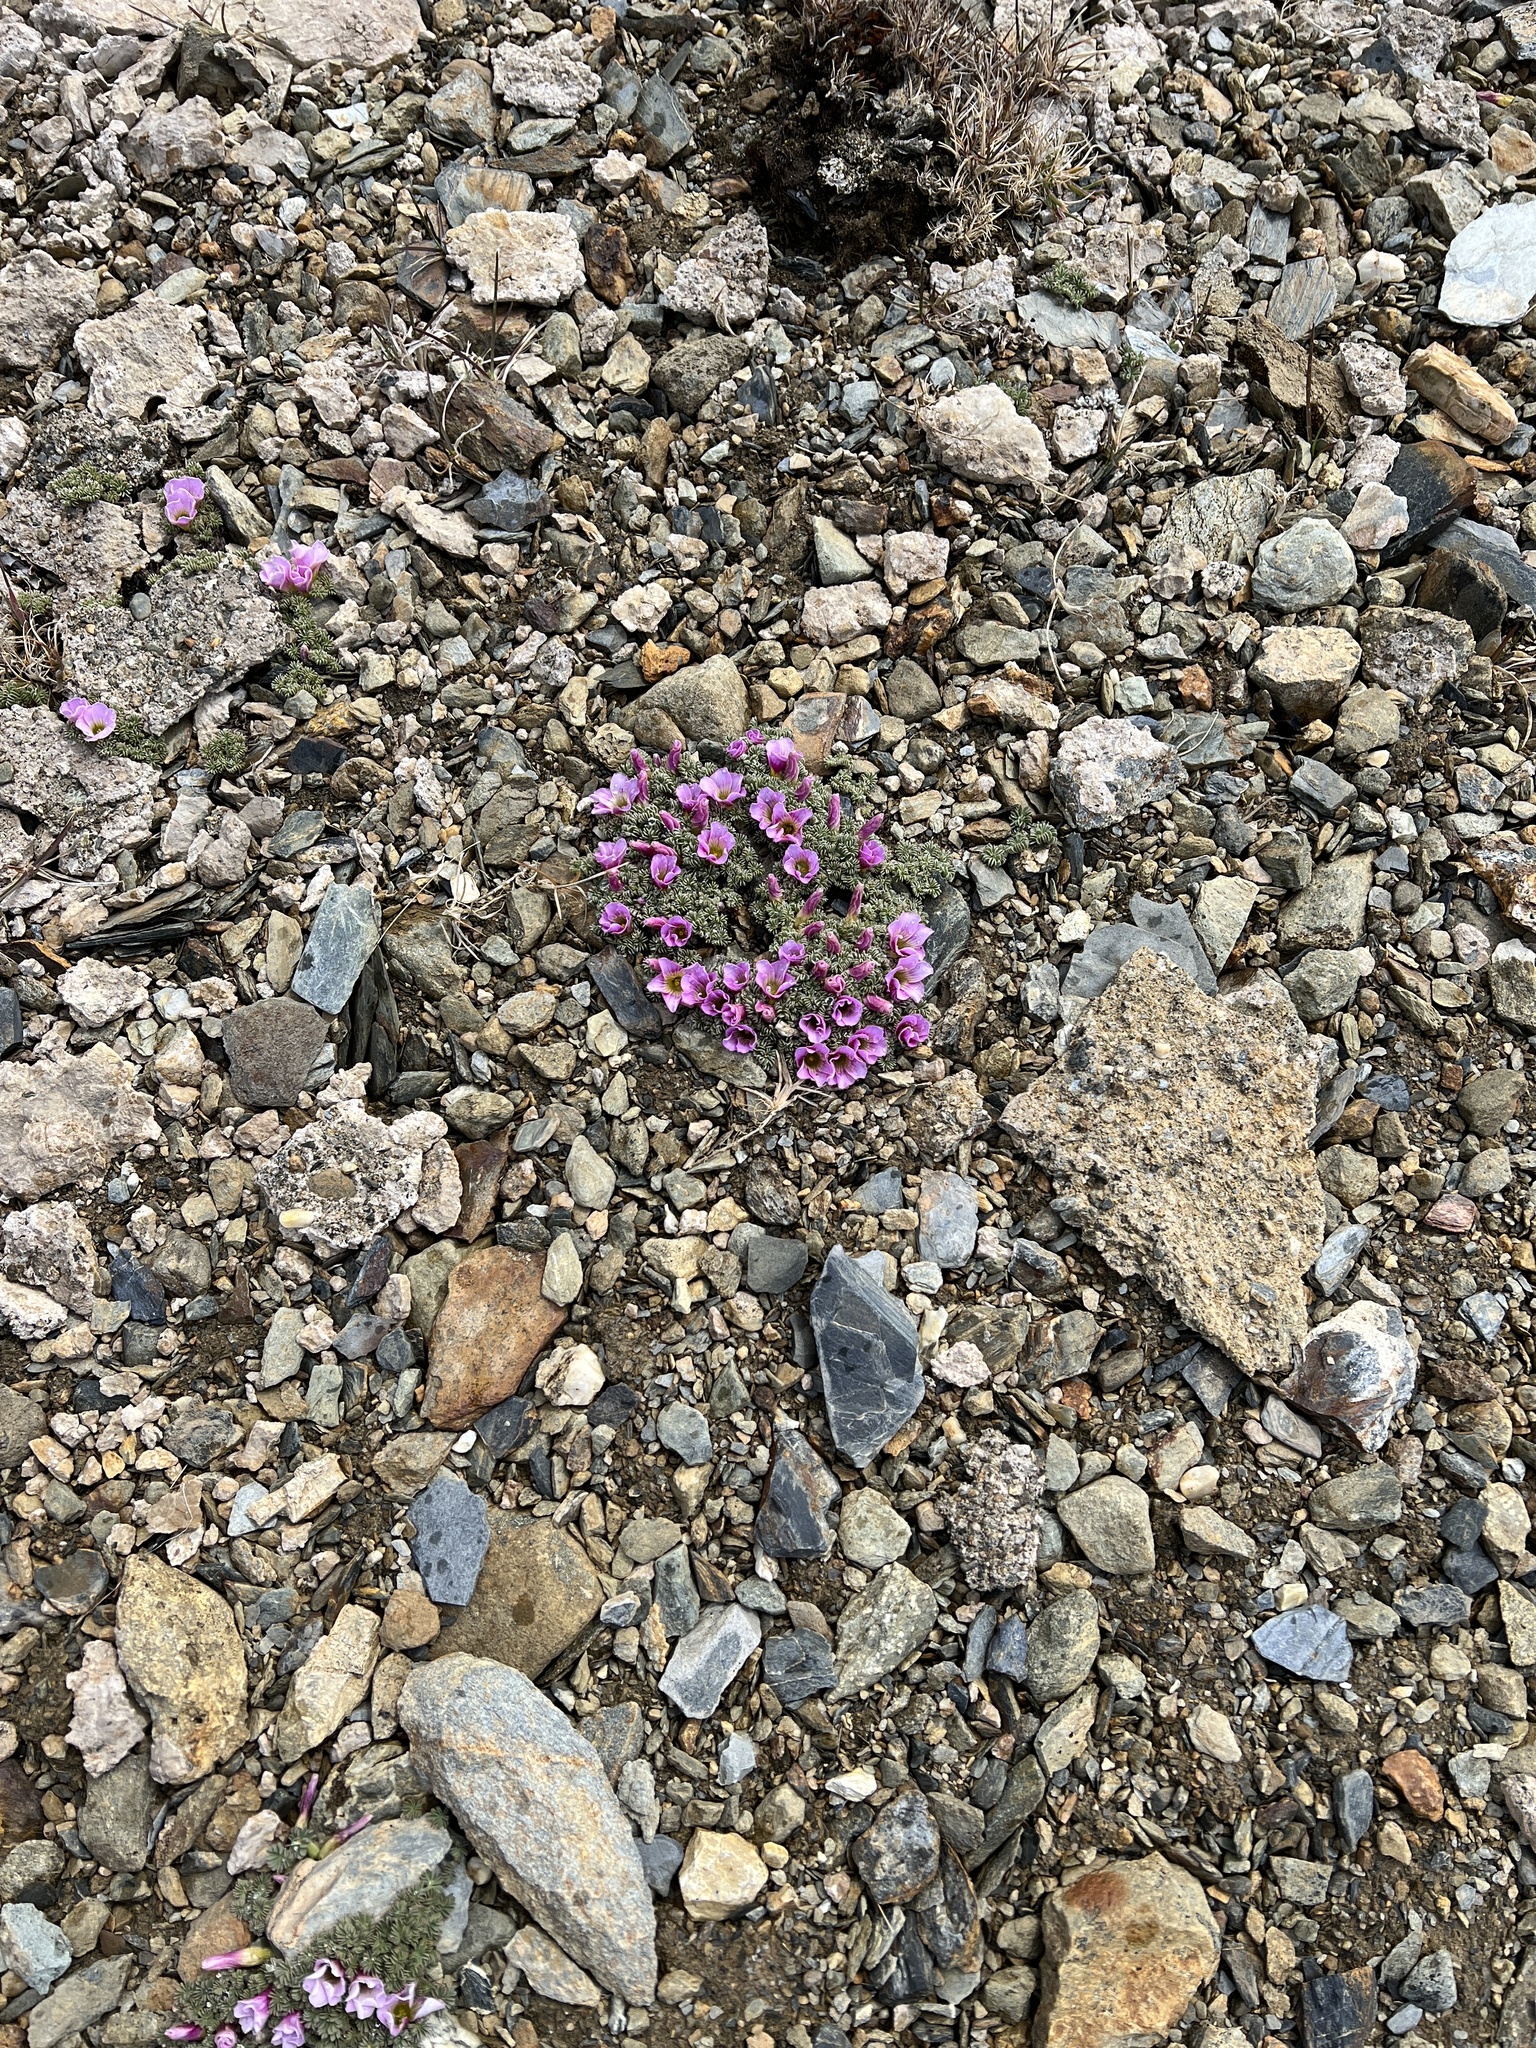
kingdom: Plantae
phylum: Tracheophyta
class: Magnoliopsida
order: Oxalidales
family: Oxalidaceae
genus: Oxalis
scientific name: Oxalis enneaphylla
